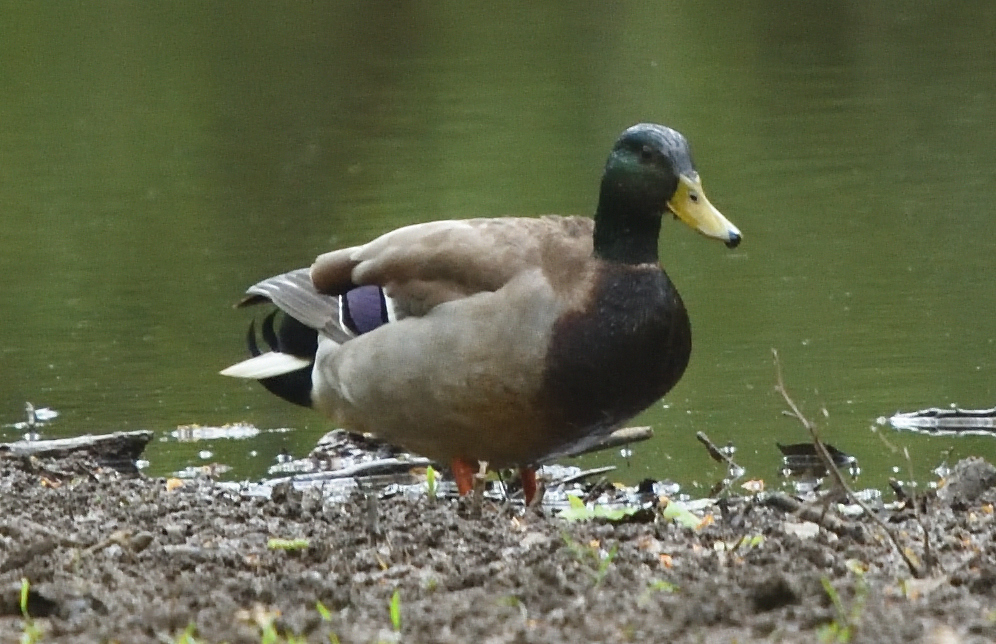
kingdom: Animalia
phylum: Chordata
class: Aves
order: Anseriformes
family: Anatidae
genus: Anas
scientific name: Anas platyrhynchos
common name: Mallard
